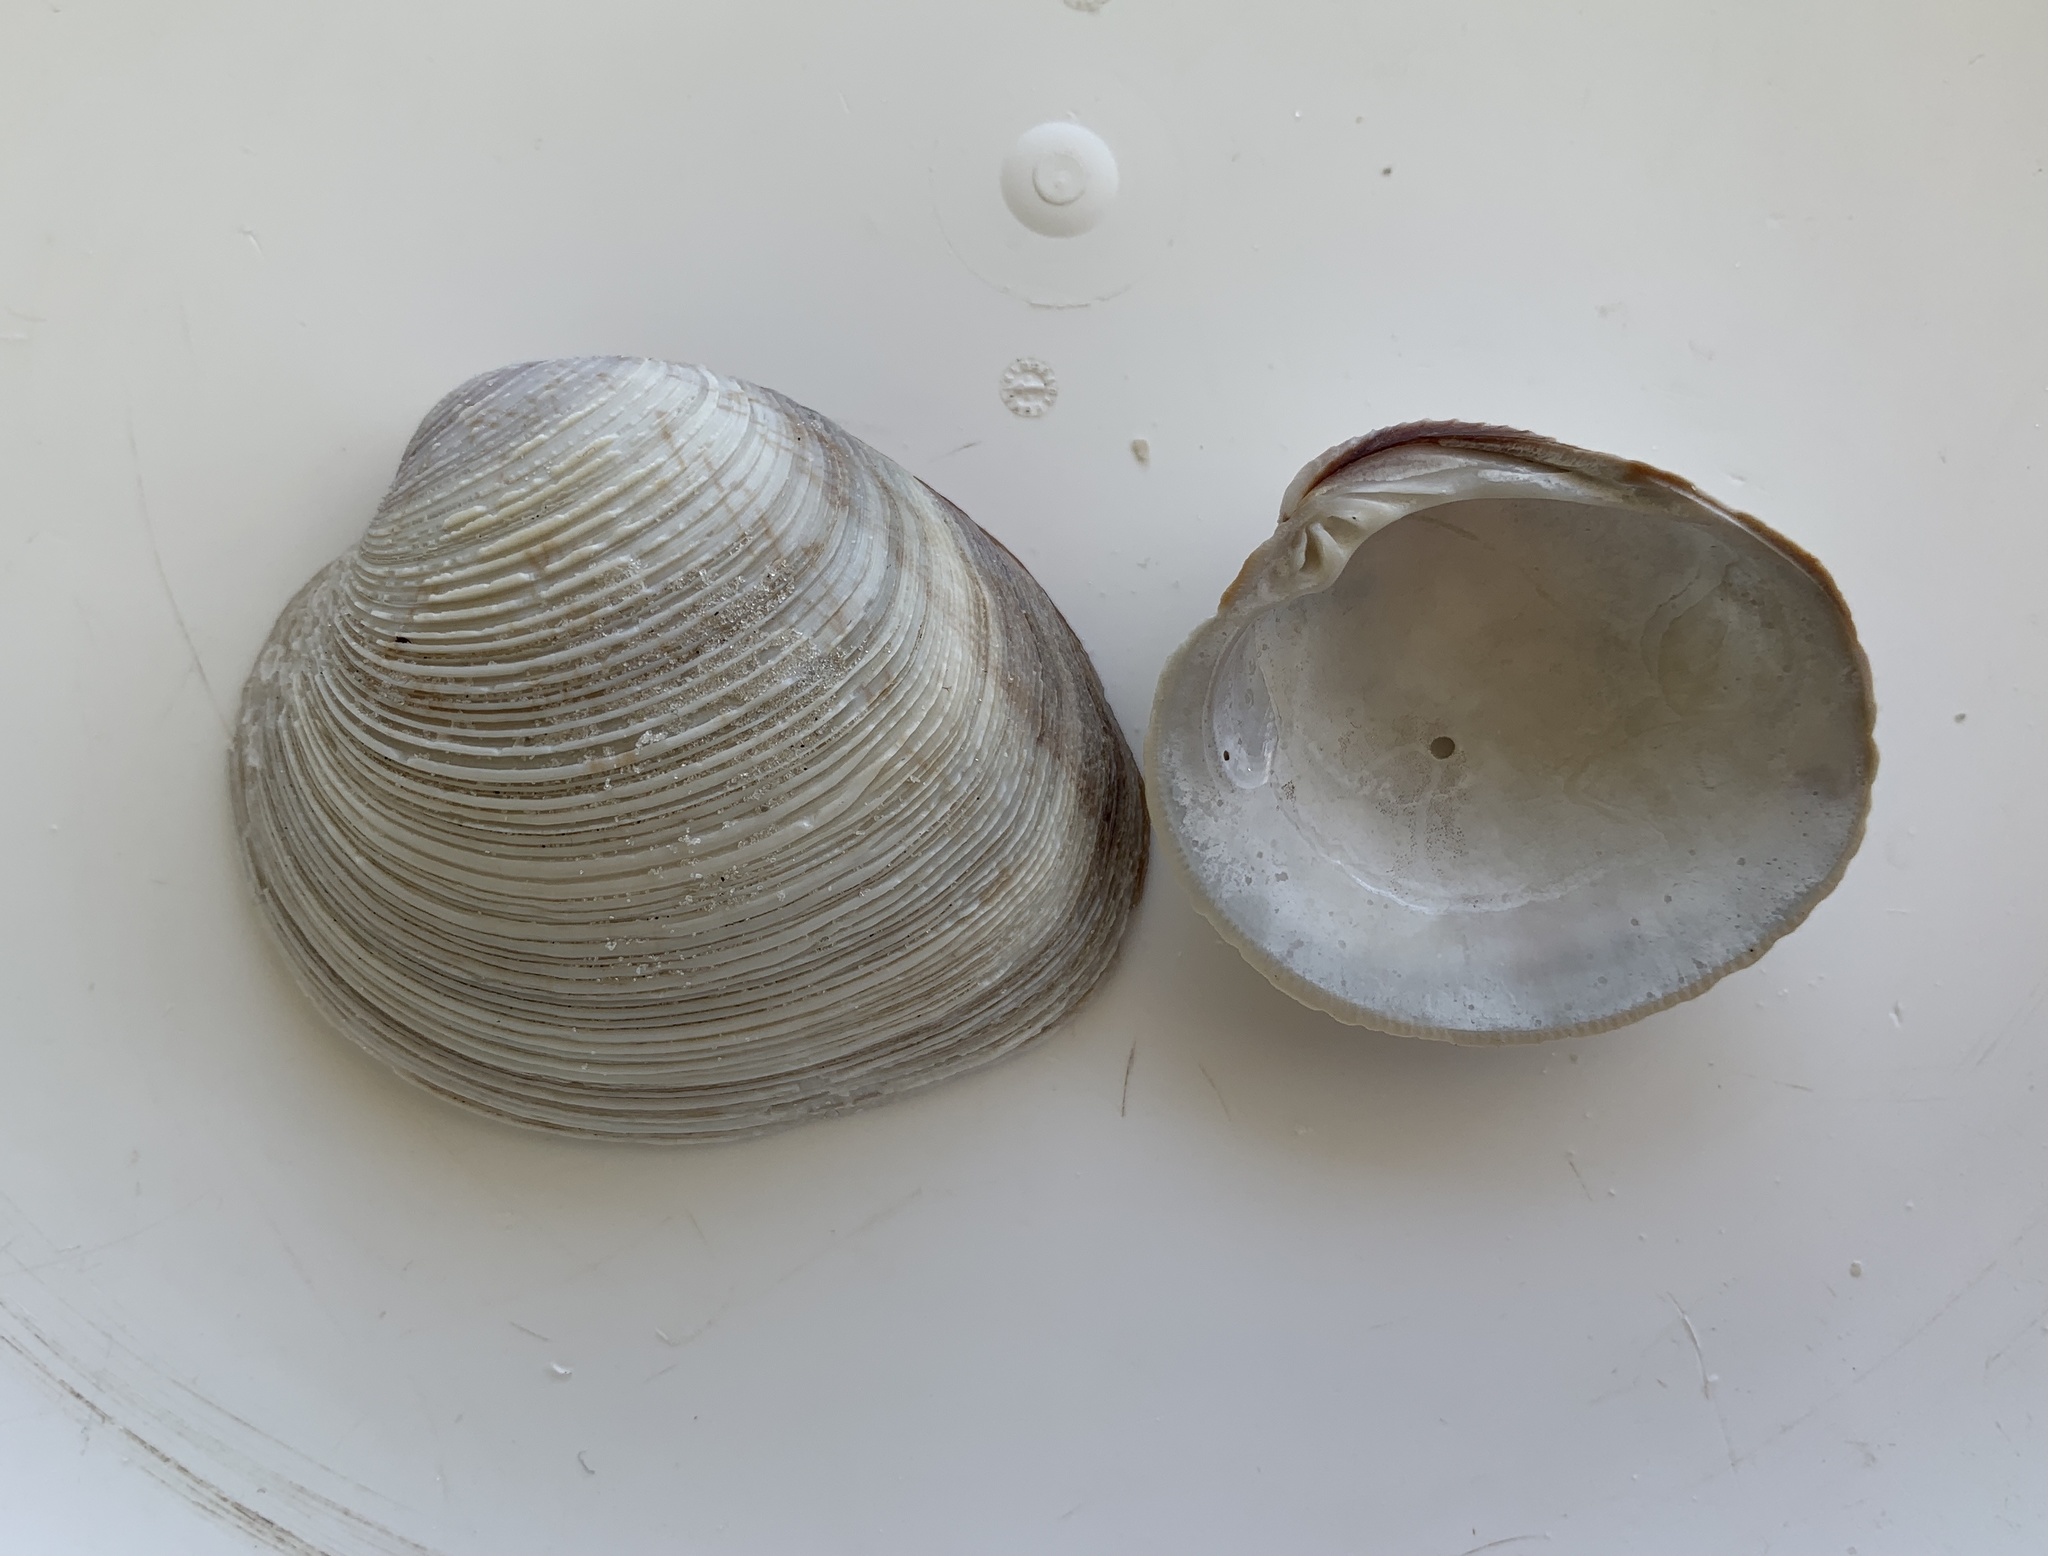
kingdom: Animalia
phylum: Mollusca
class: Bivalvia
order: Venerida
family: Veneridae
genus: Mercenaria
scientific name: Mercenaria campechiensis
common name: Südliche quahog-muschel
